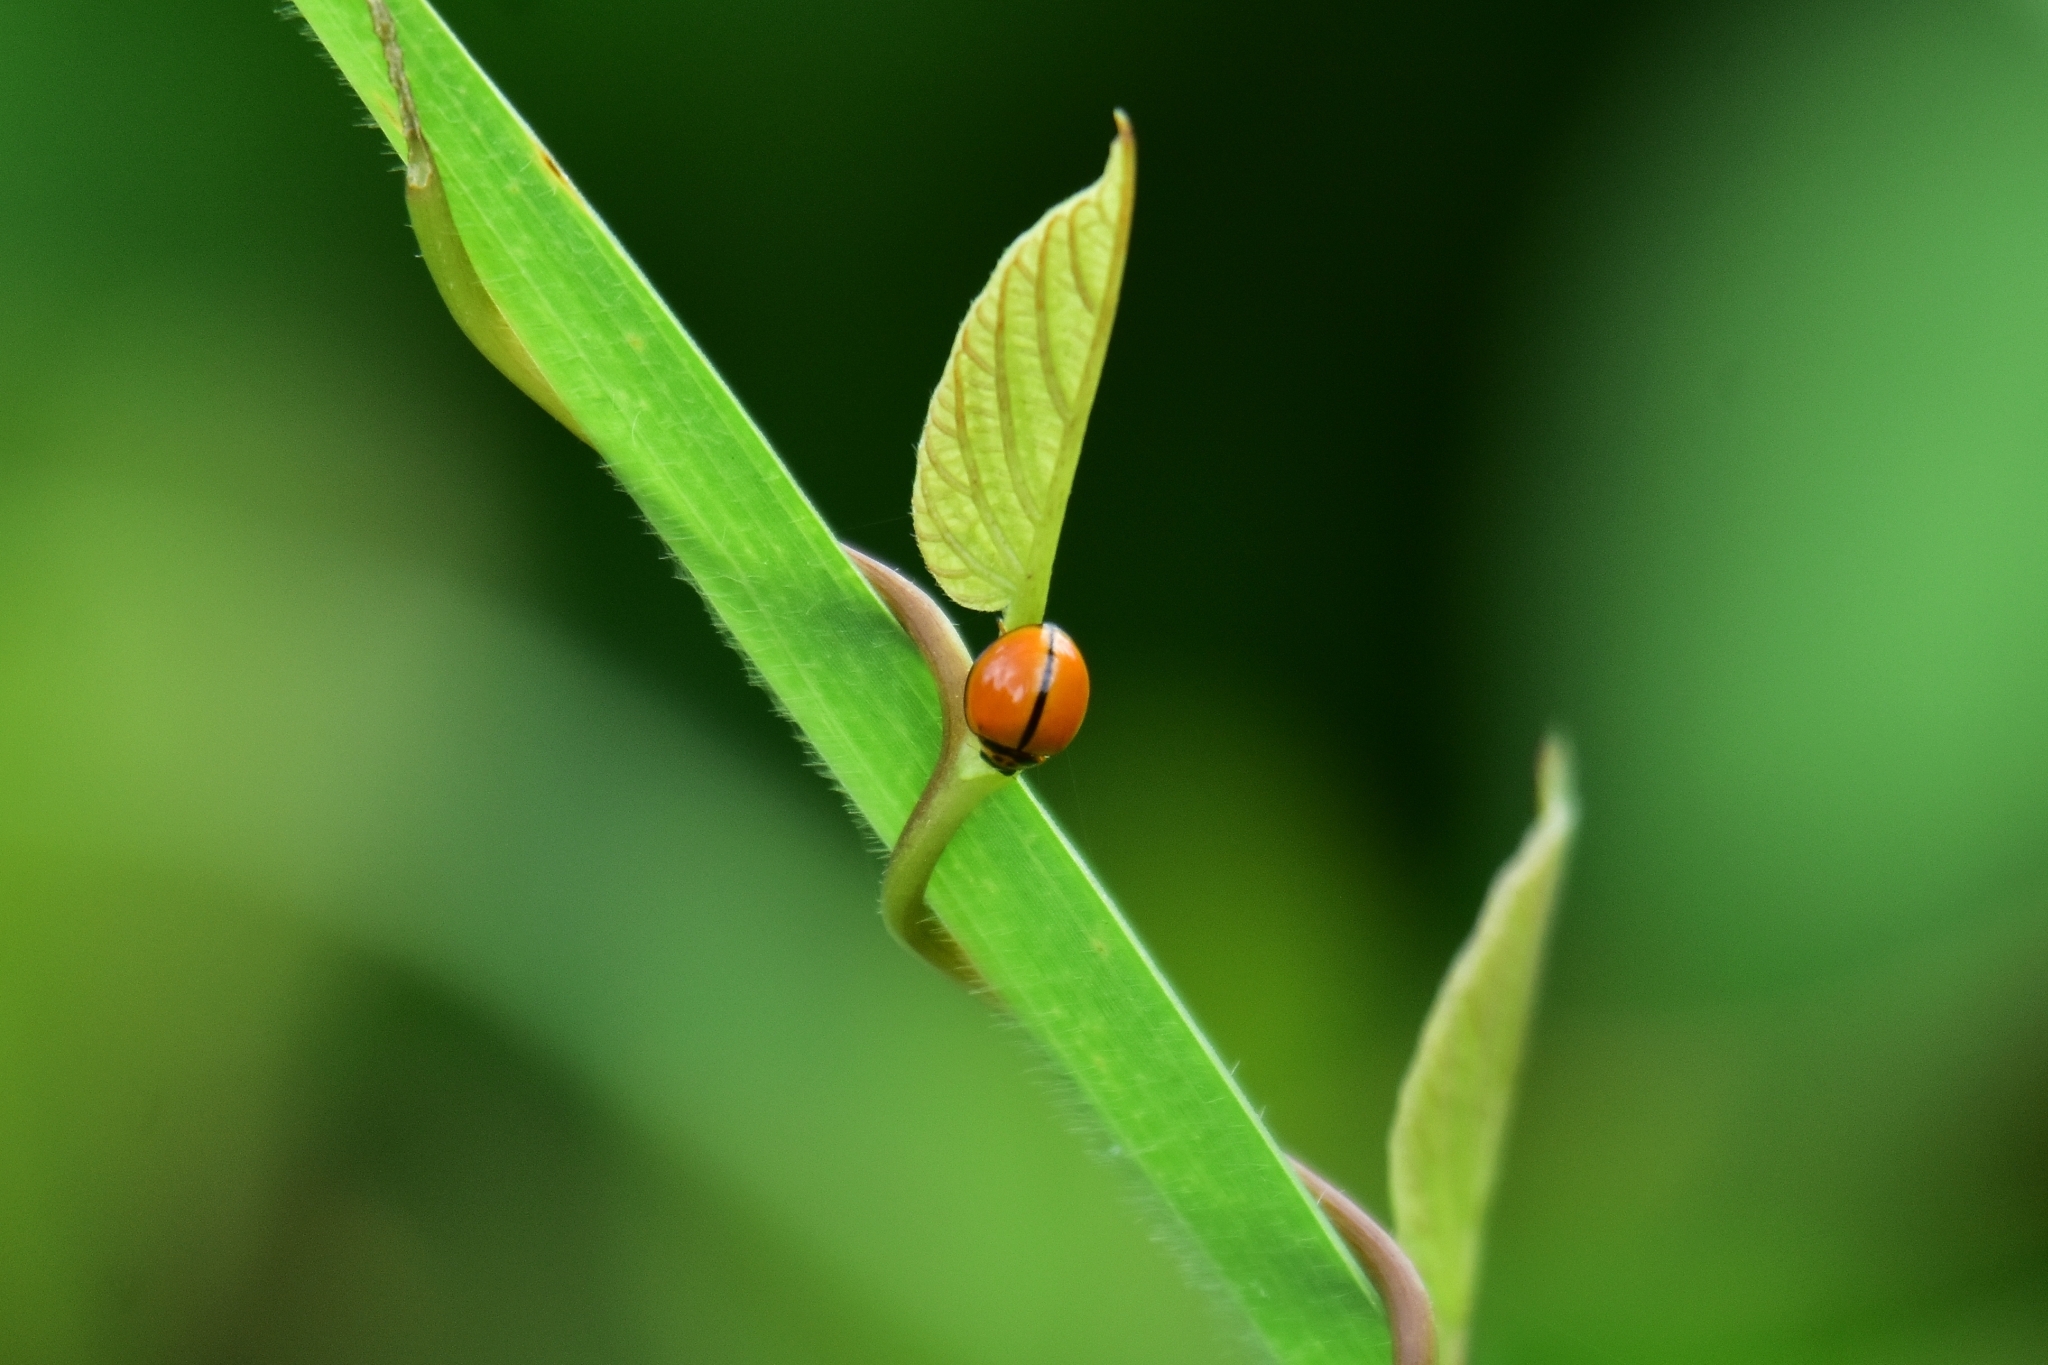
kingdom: Animalia
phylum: Arthropoda
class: Insecta
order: Coleoptera
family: Coccinellidae
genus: Micraspis
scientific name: Micraspis discolor
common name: Lady beetle
